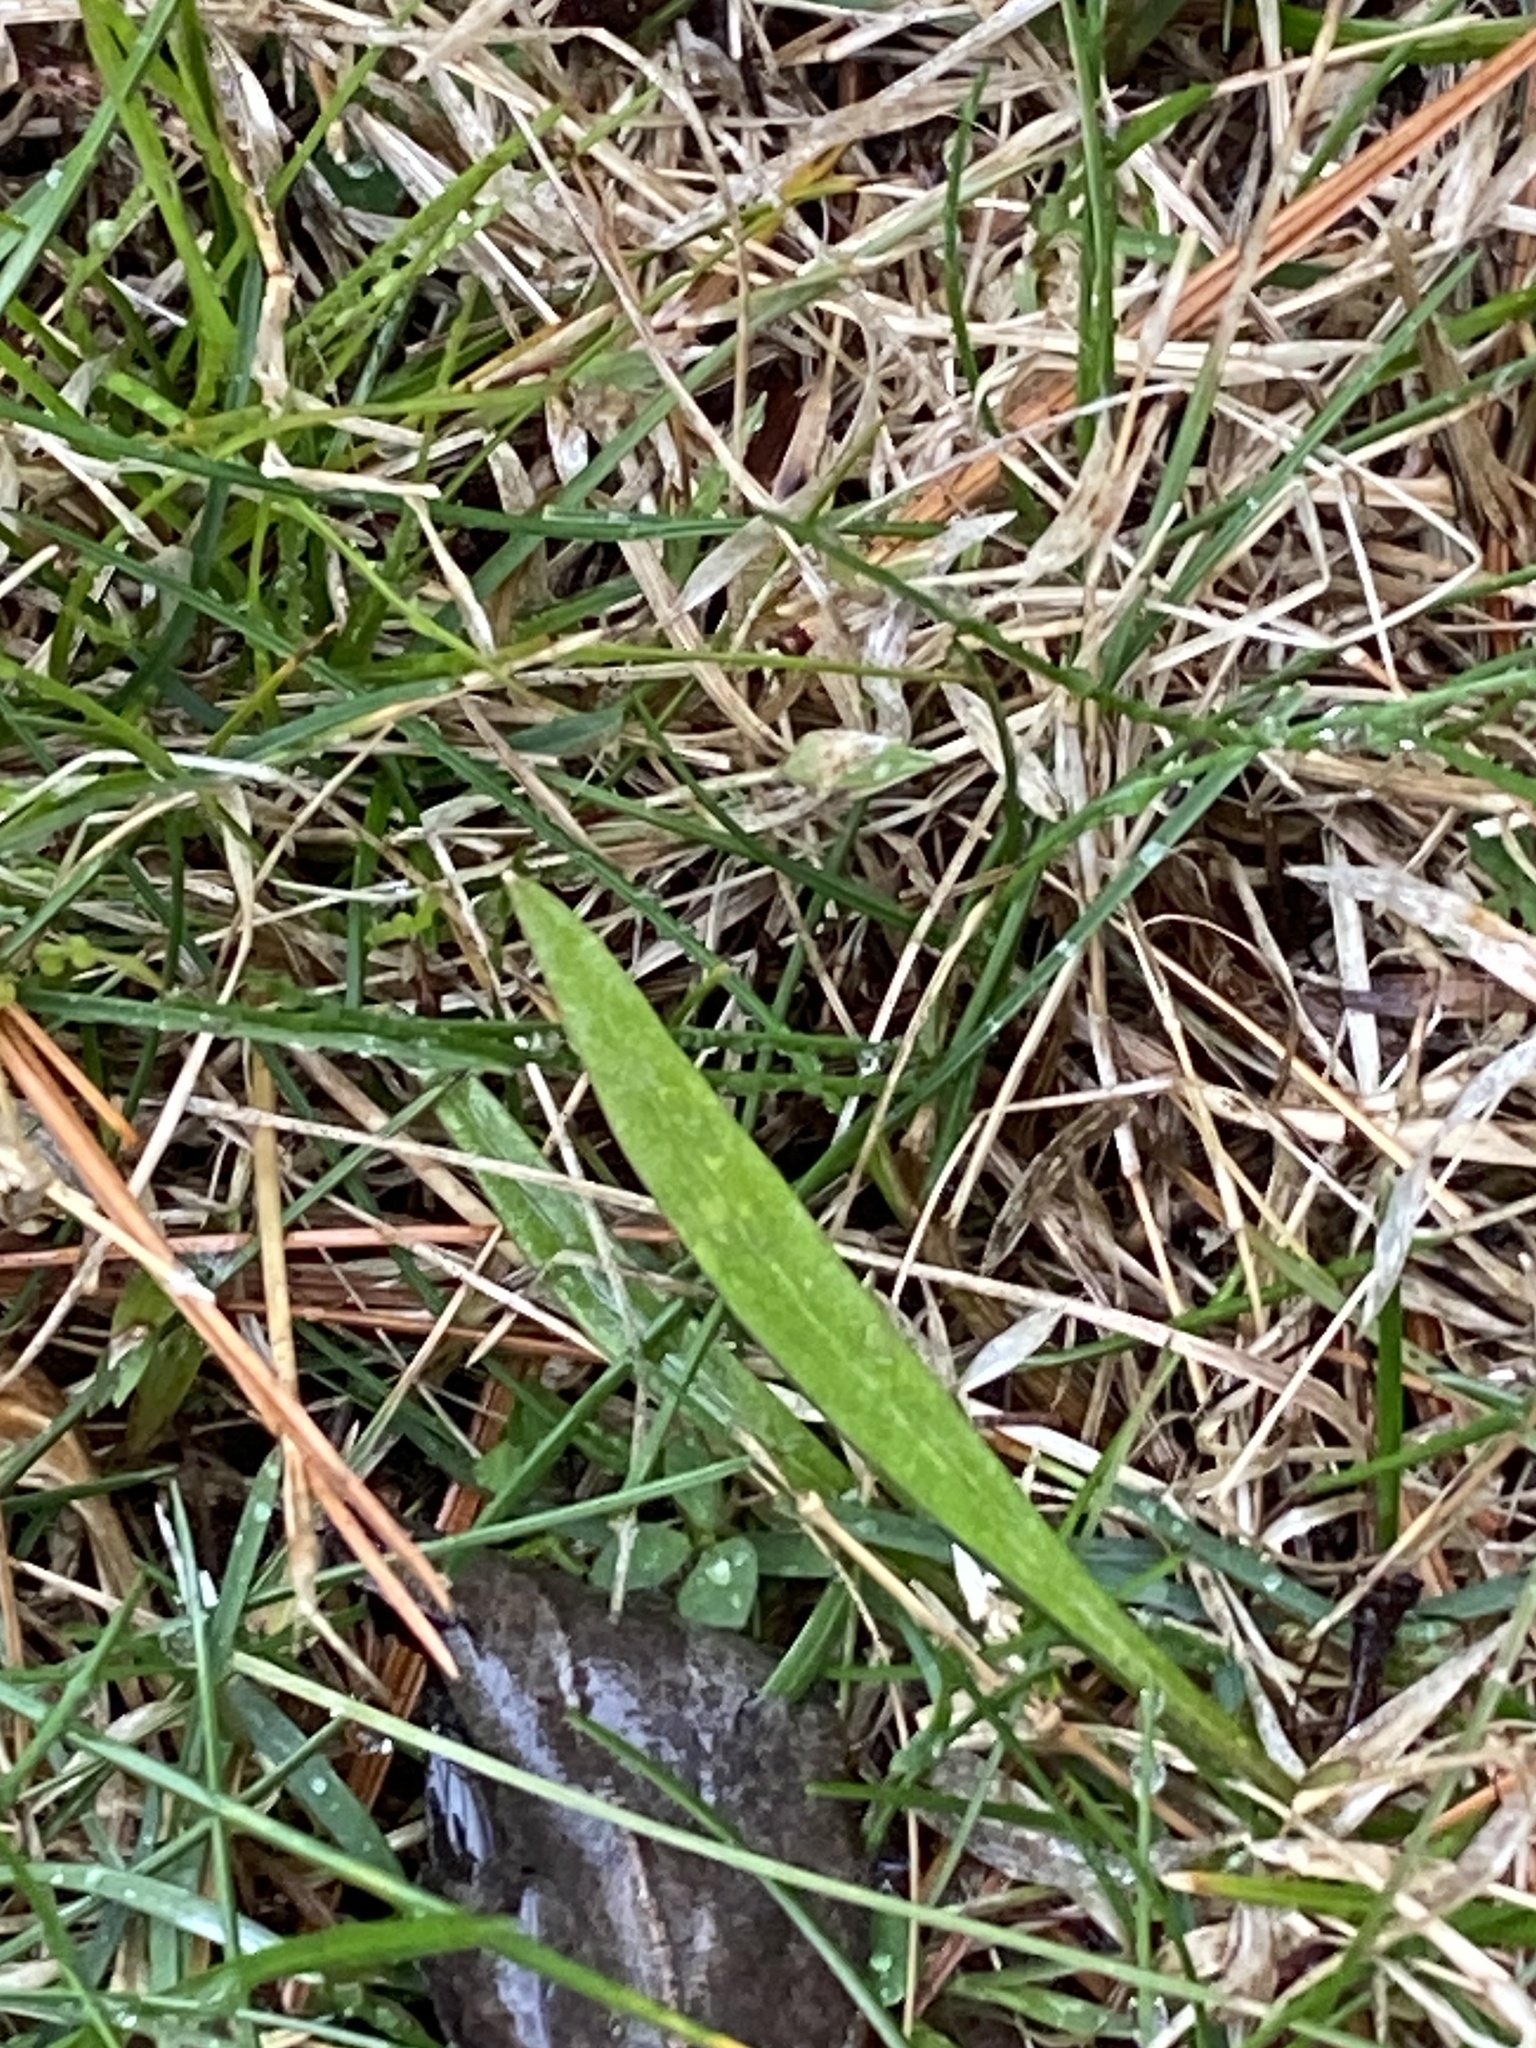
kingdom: Plantae
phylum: Tracheophyta
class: Magnoliopsida
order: Caryophyllales
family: Montiaceae
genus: Claytonia
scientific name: Claytonia virginica
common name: Virginia springbeauty
